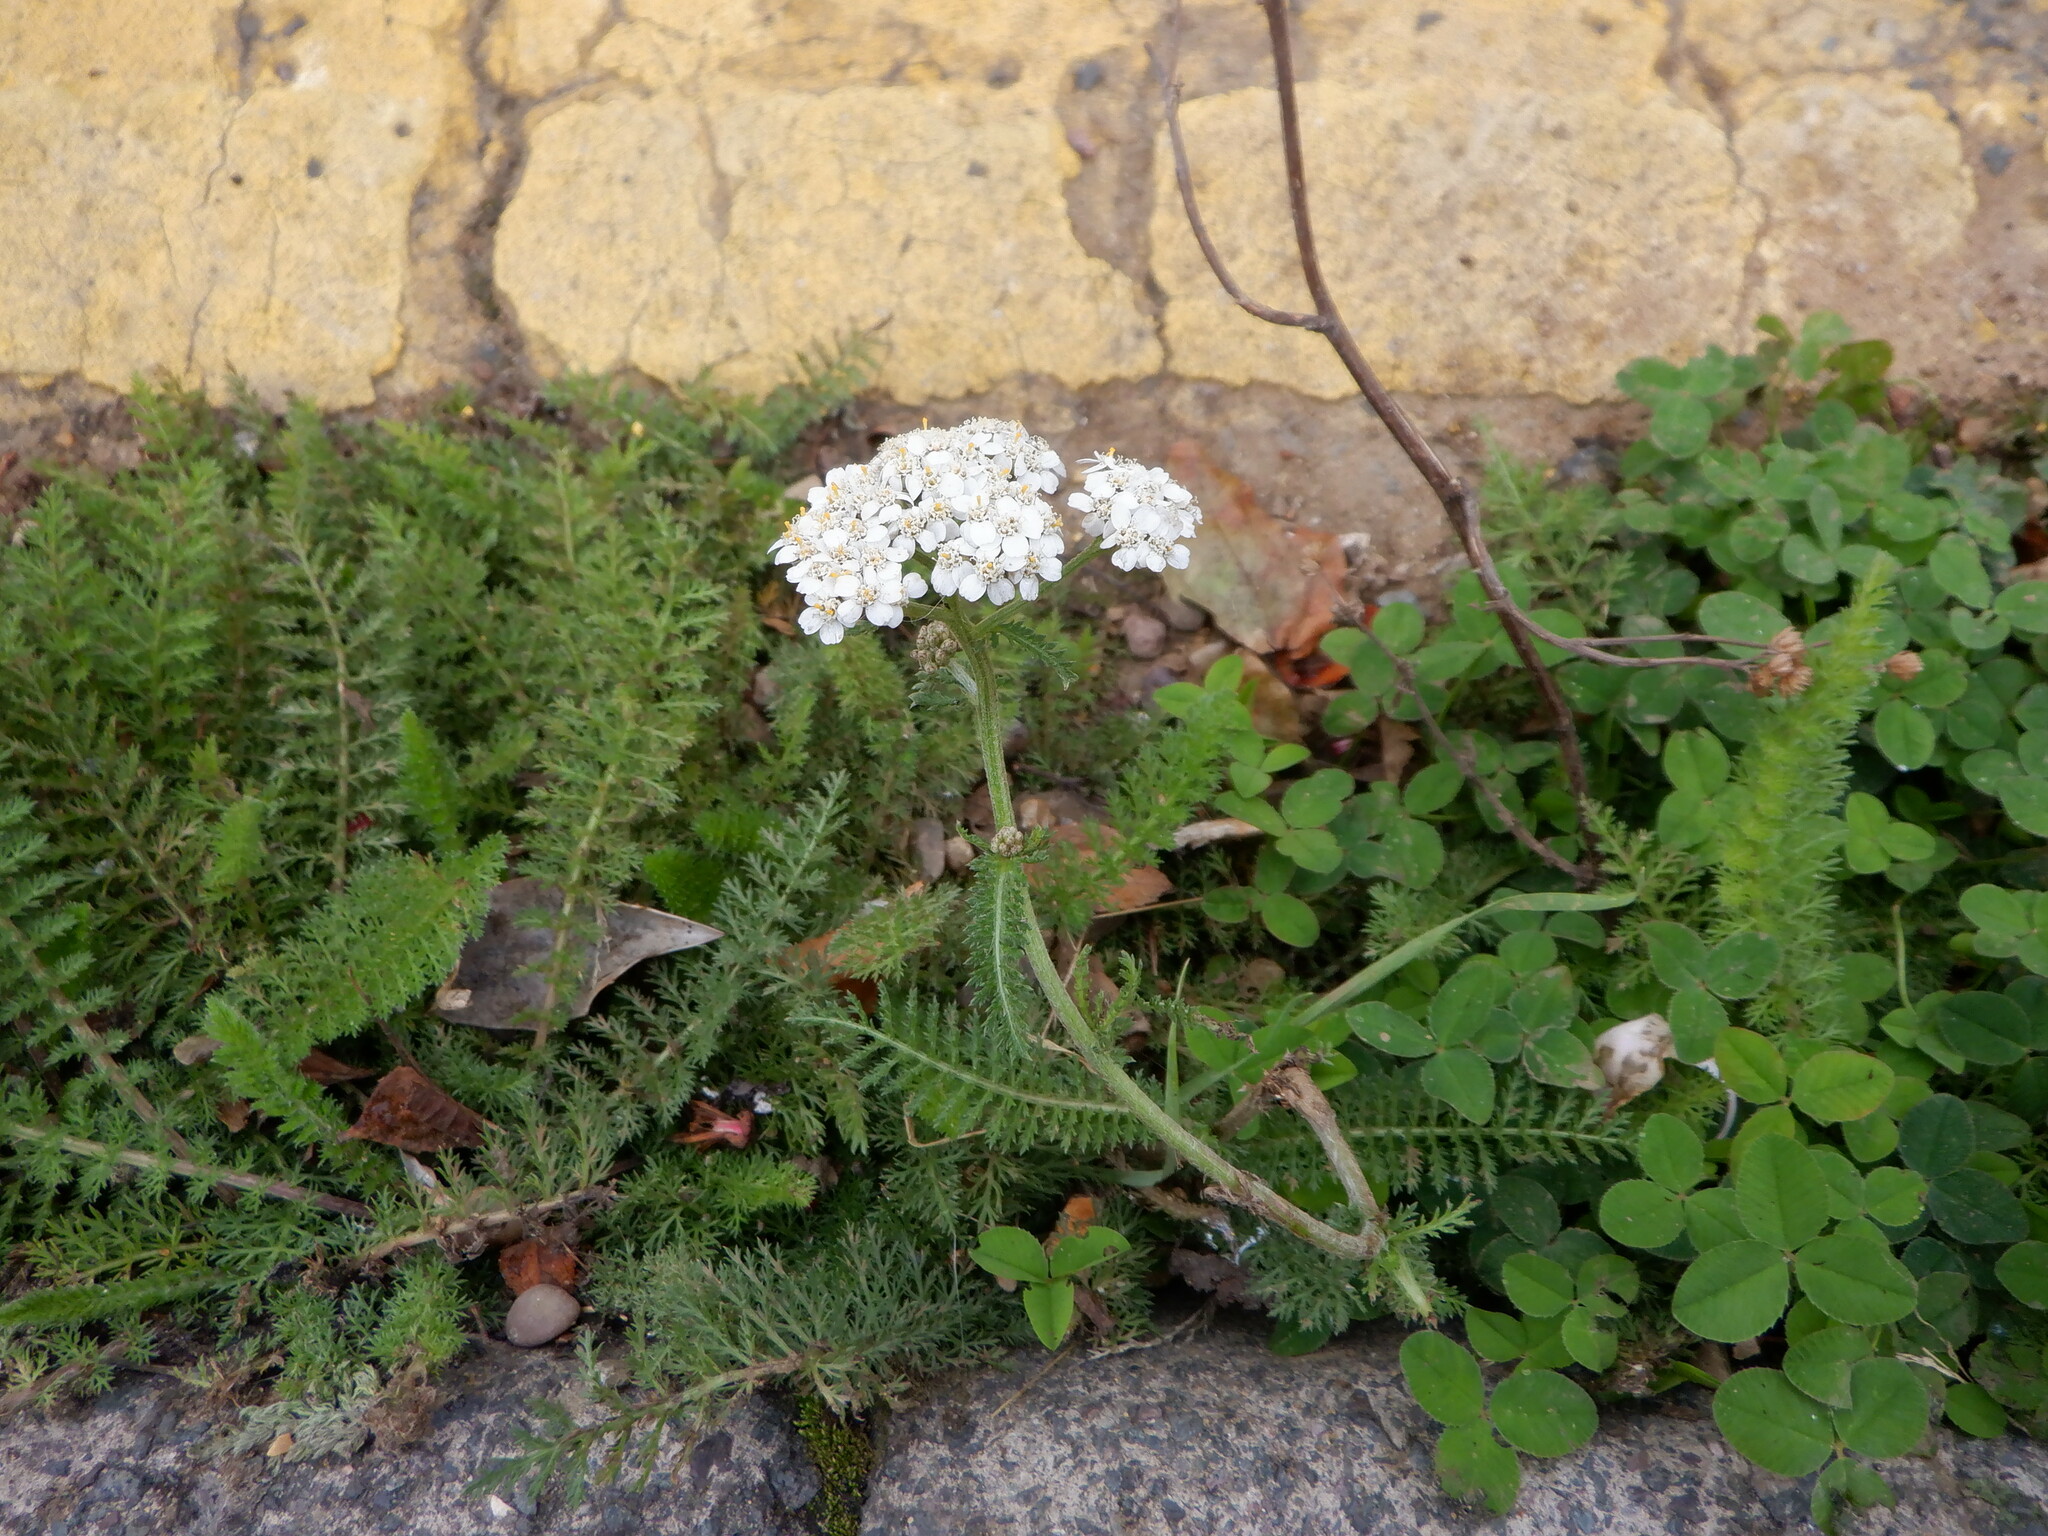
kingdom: Plantae
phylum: Tracheophyta
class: Magnoliopsida
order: Asterales
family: Asteraceae
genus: Achillea
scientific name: Achillea millefolium
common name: Yarrow
